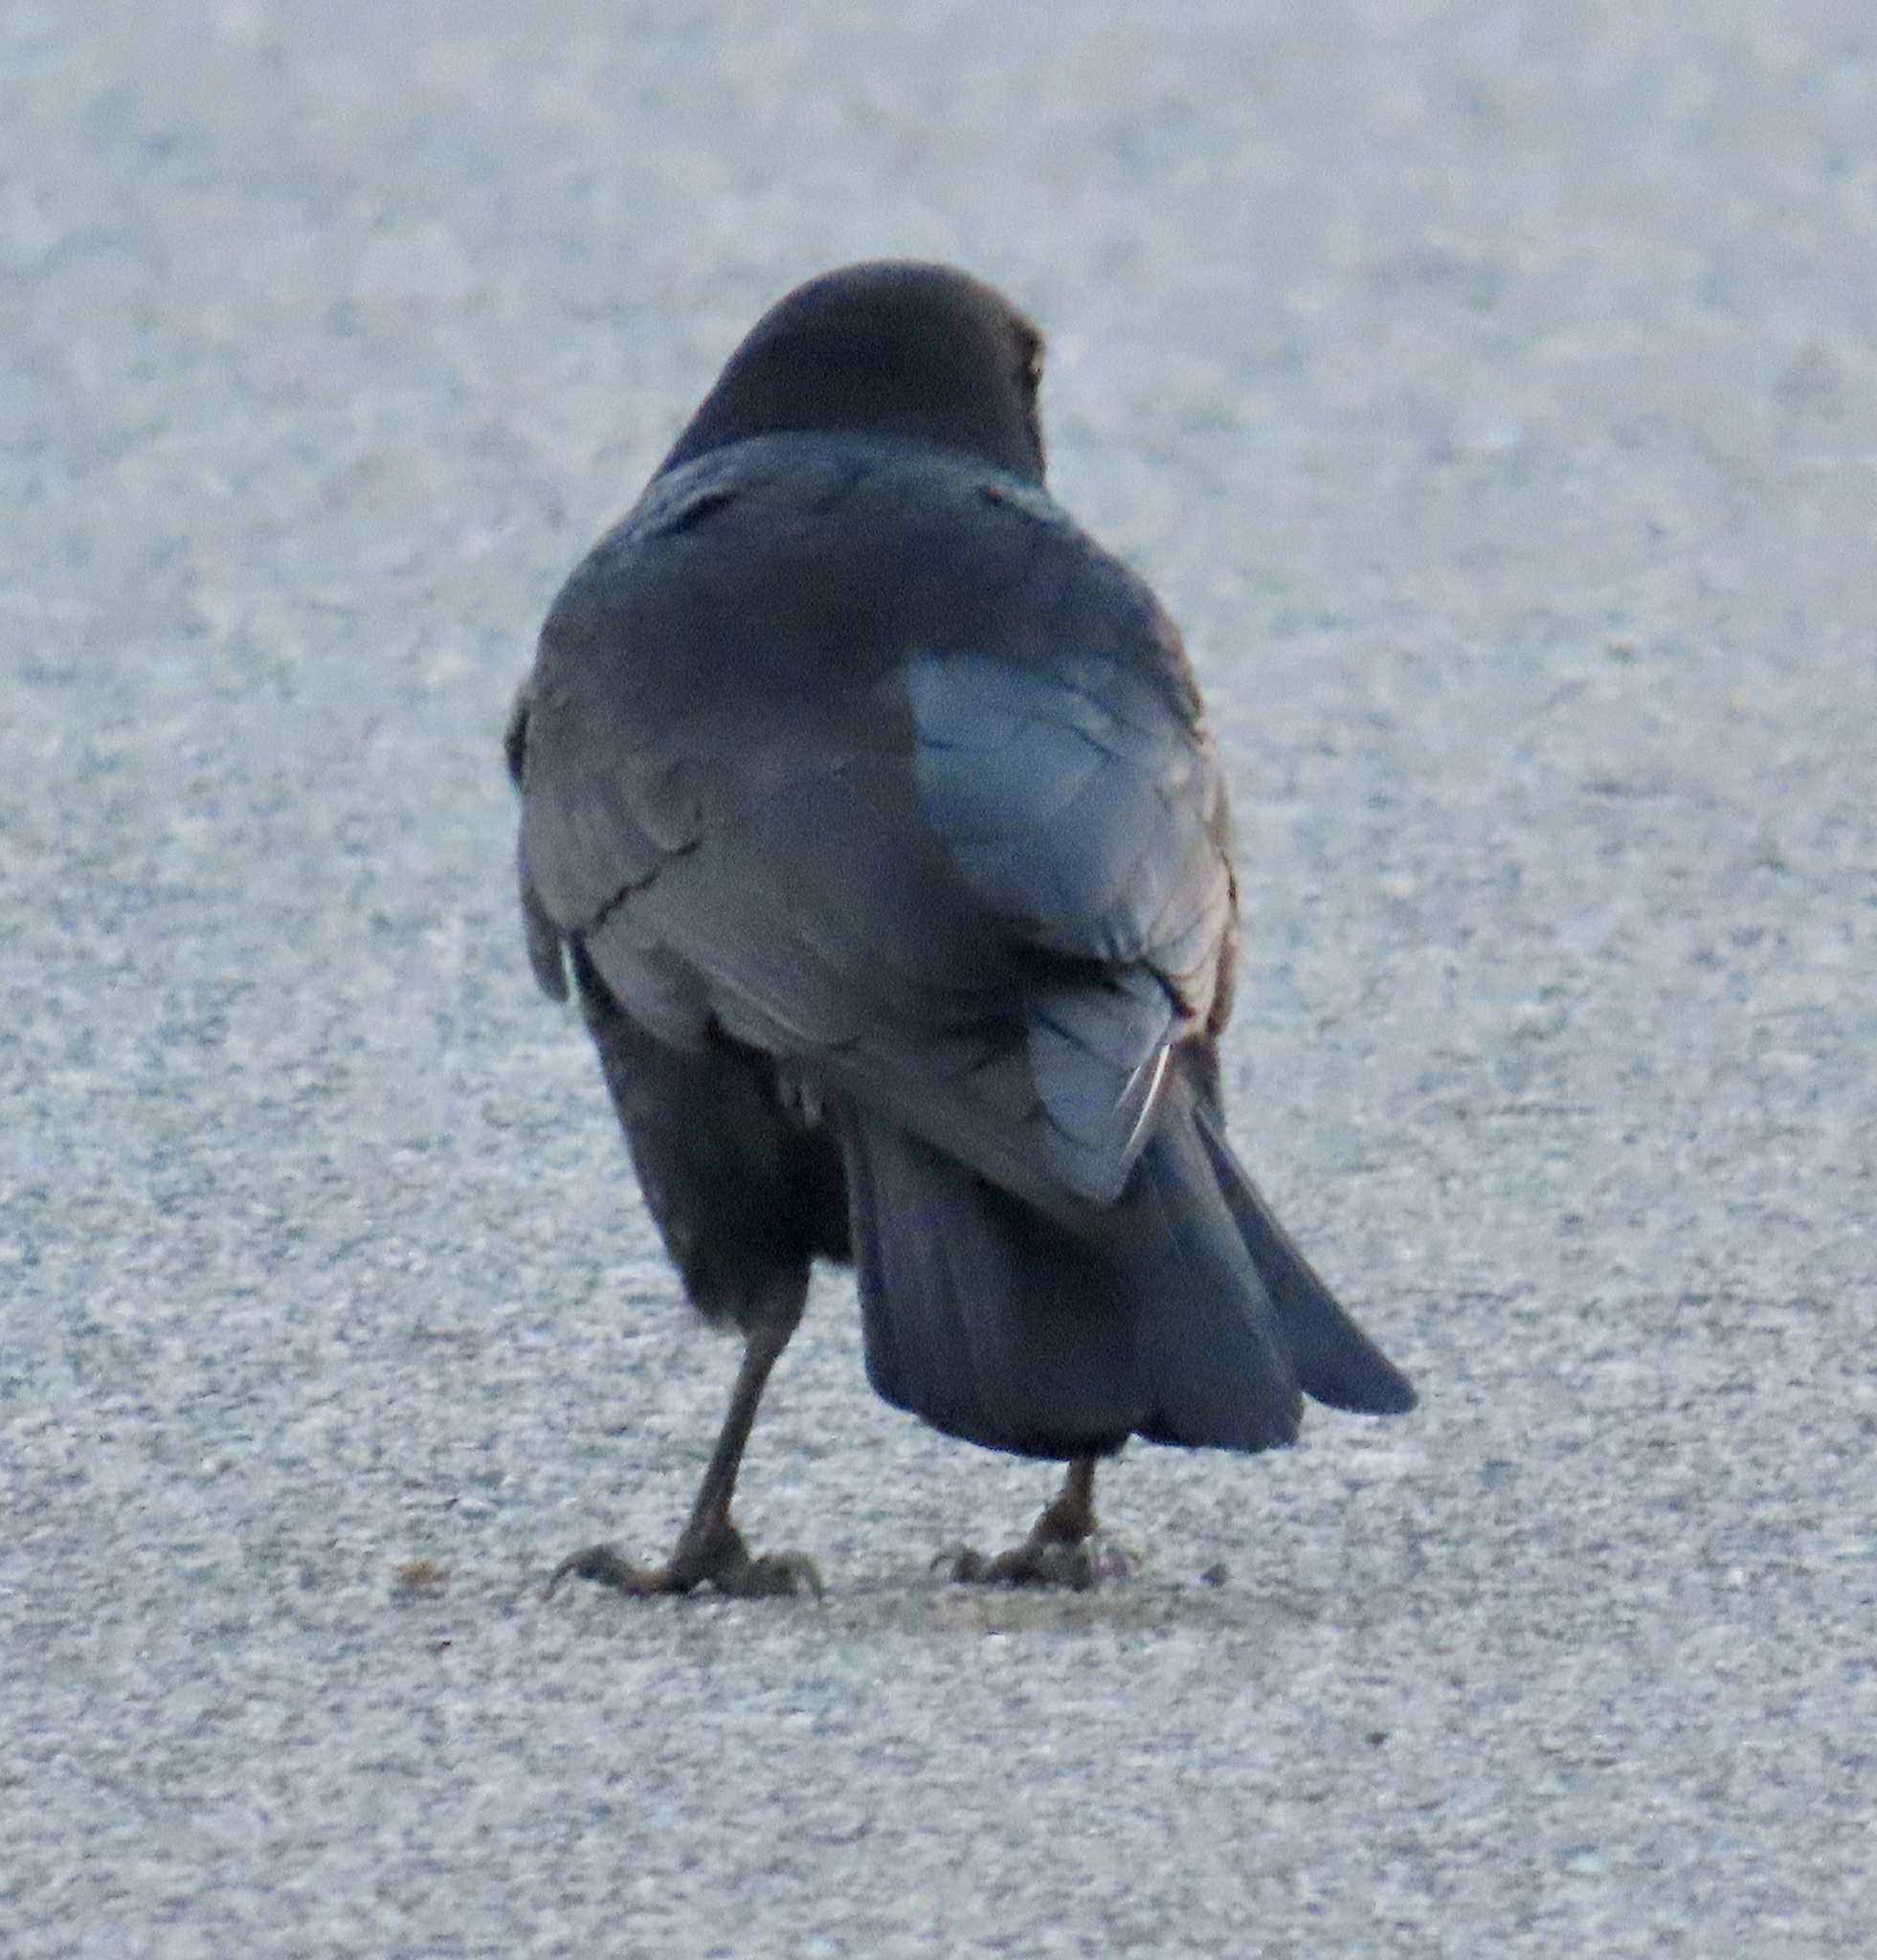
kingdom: Animalia
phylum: Chordata
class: Aves
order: Passeriformes
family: Corvidae
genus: Corvus
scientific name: Corvus brachyrhynchos
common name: American crow
